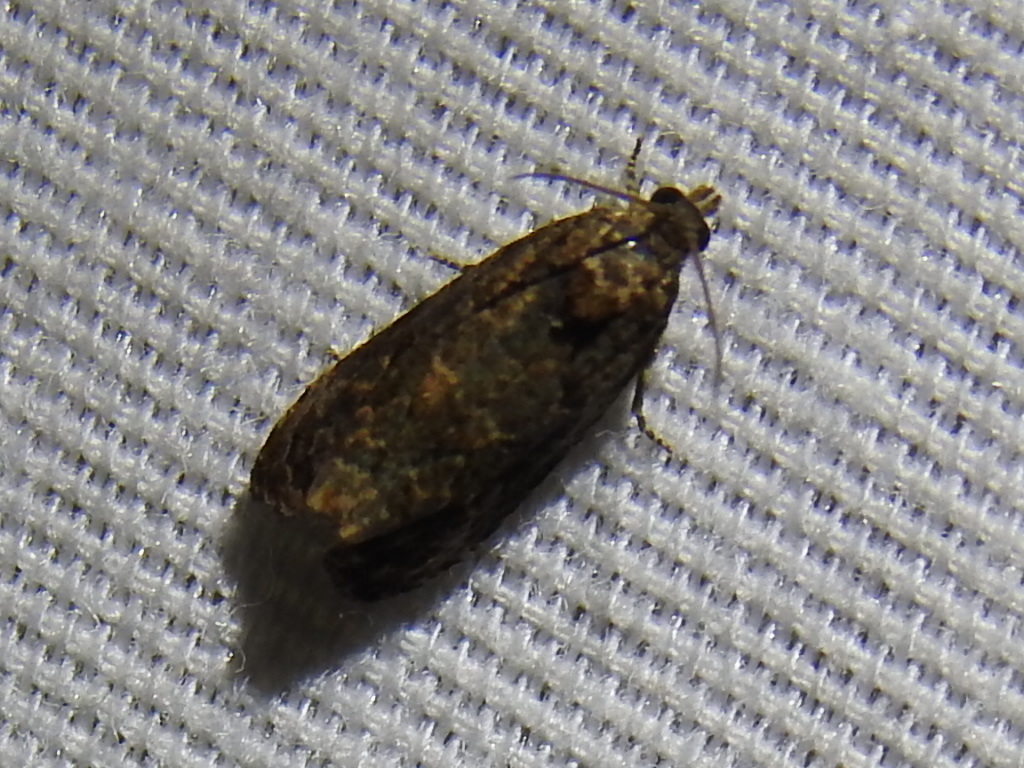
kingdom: Animalia
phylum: Arthropoda
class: Insecta
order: Lepidoptera
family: Tortricidae
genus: Endothenia
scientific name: Endothenia hebesana
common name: Verbena bud moth
